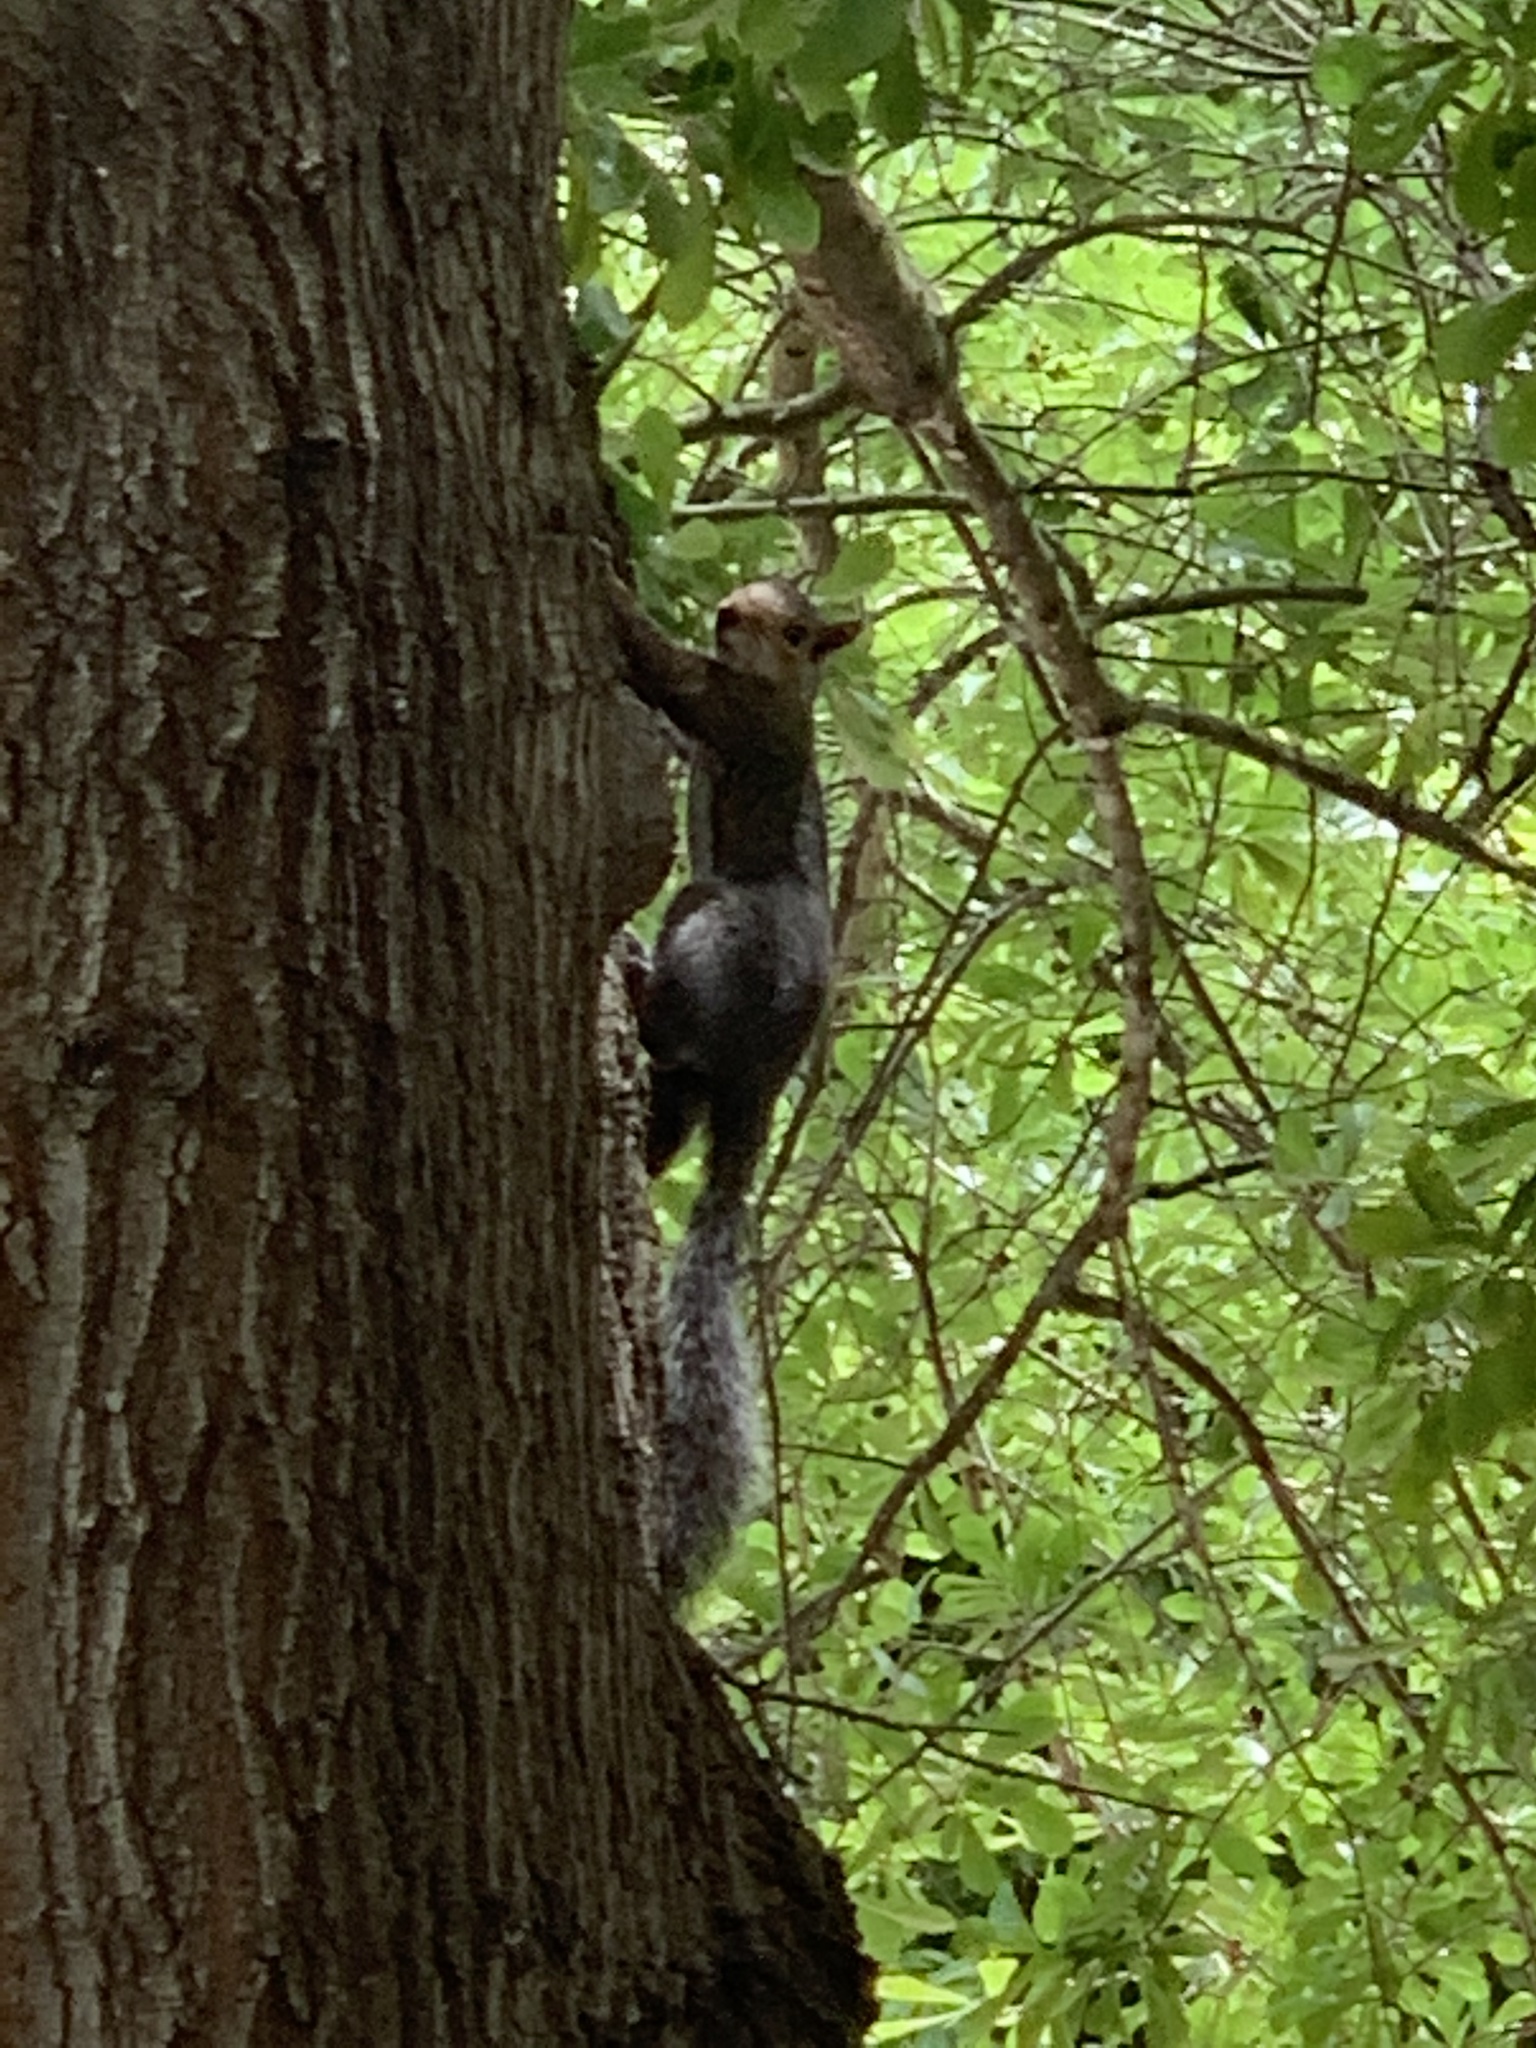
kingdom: Animalia
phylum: Chordata
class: Mammalia
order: Rodentia
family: Sciuridae
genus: Sciurus
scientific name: Sciurus carolinensis
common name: Eastern gray squirrel
